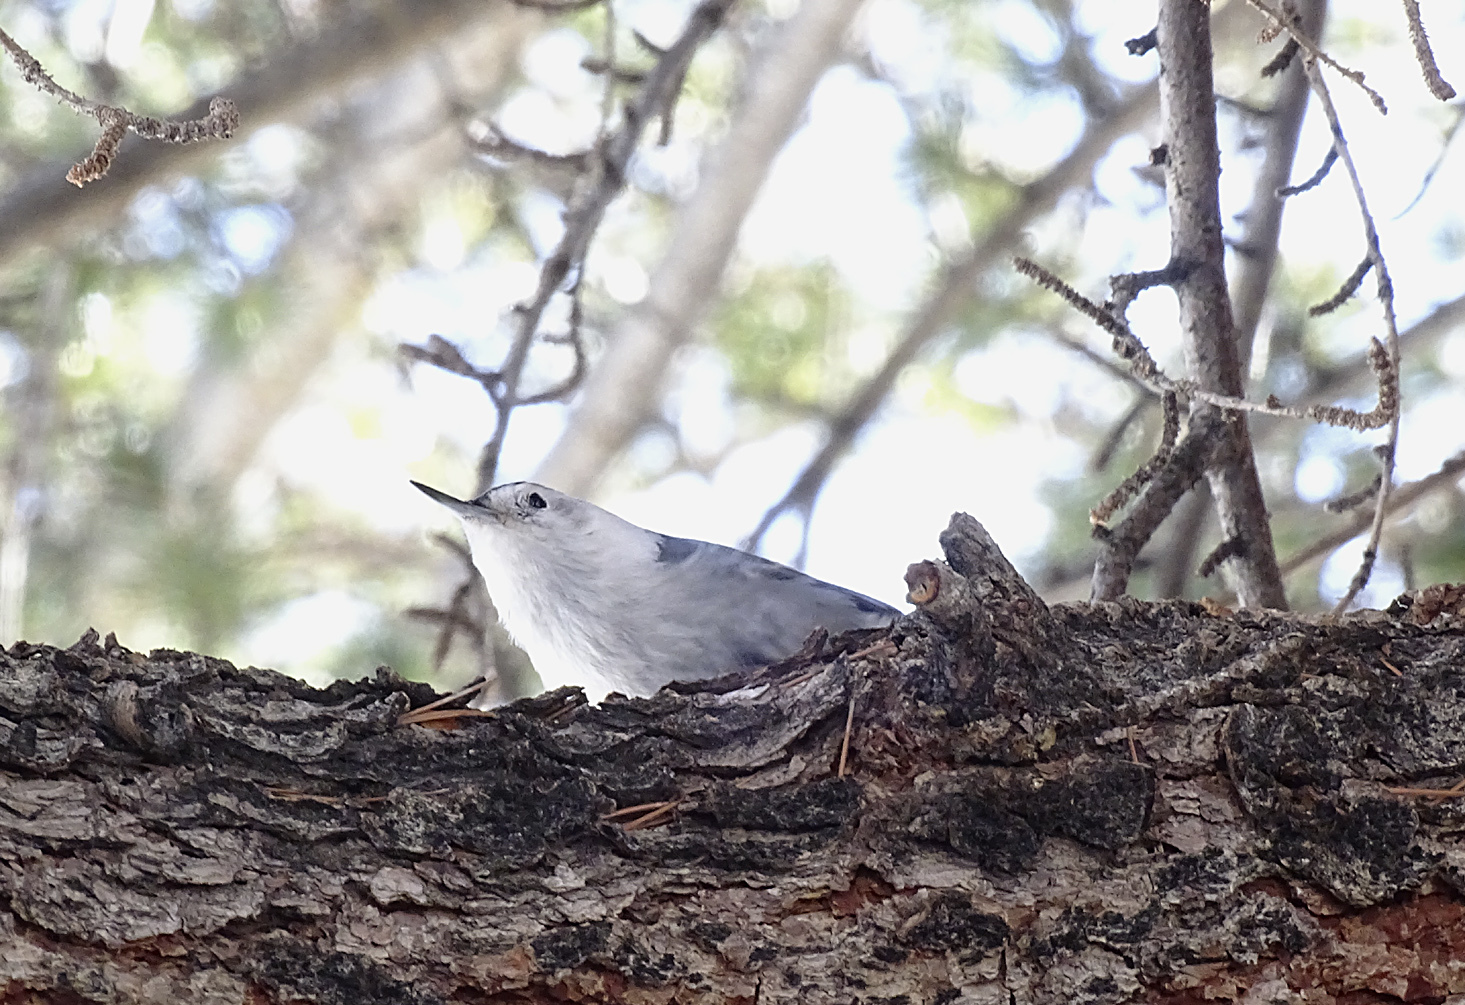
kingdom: Animalia
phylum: Chordata
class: Aves
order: Passeriformes
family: Sittidae
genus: Sitta
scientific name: Sitta carolinensis
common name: White-breasted nuthatch
